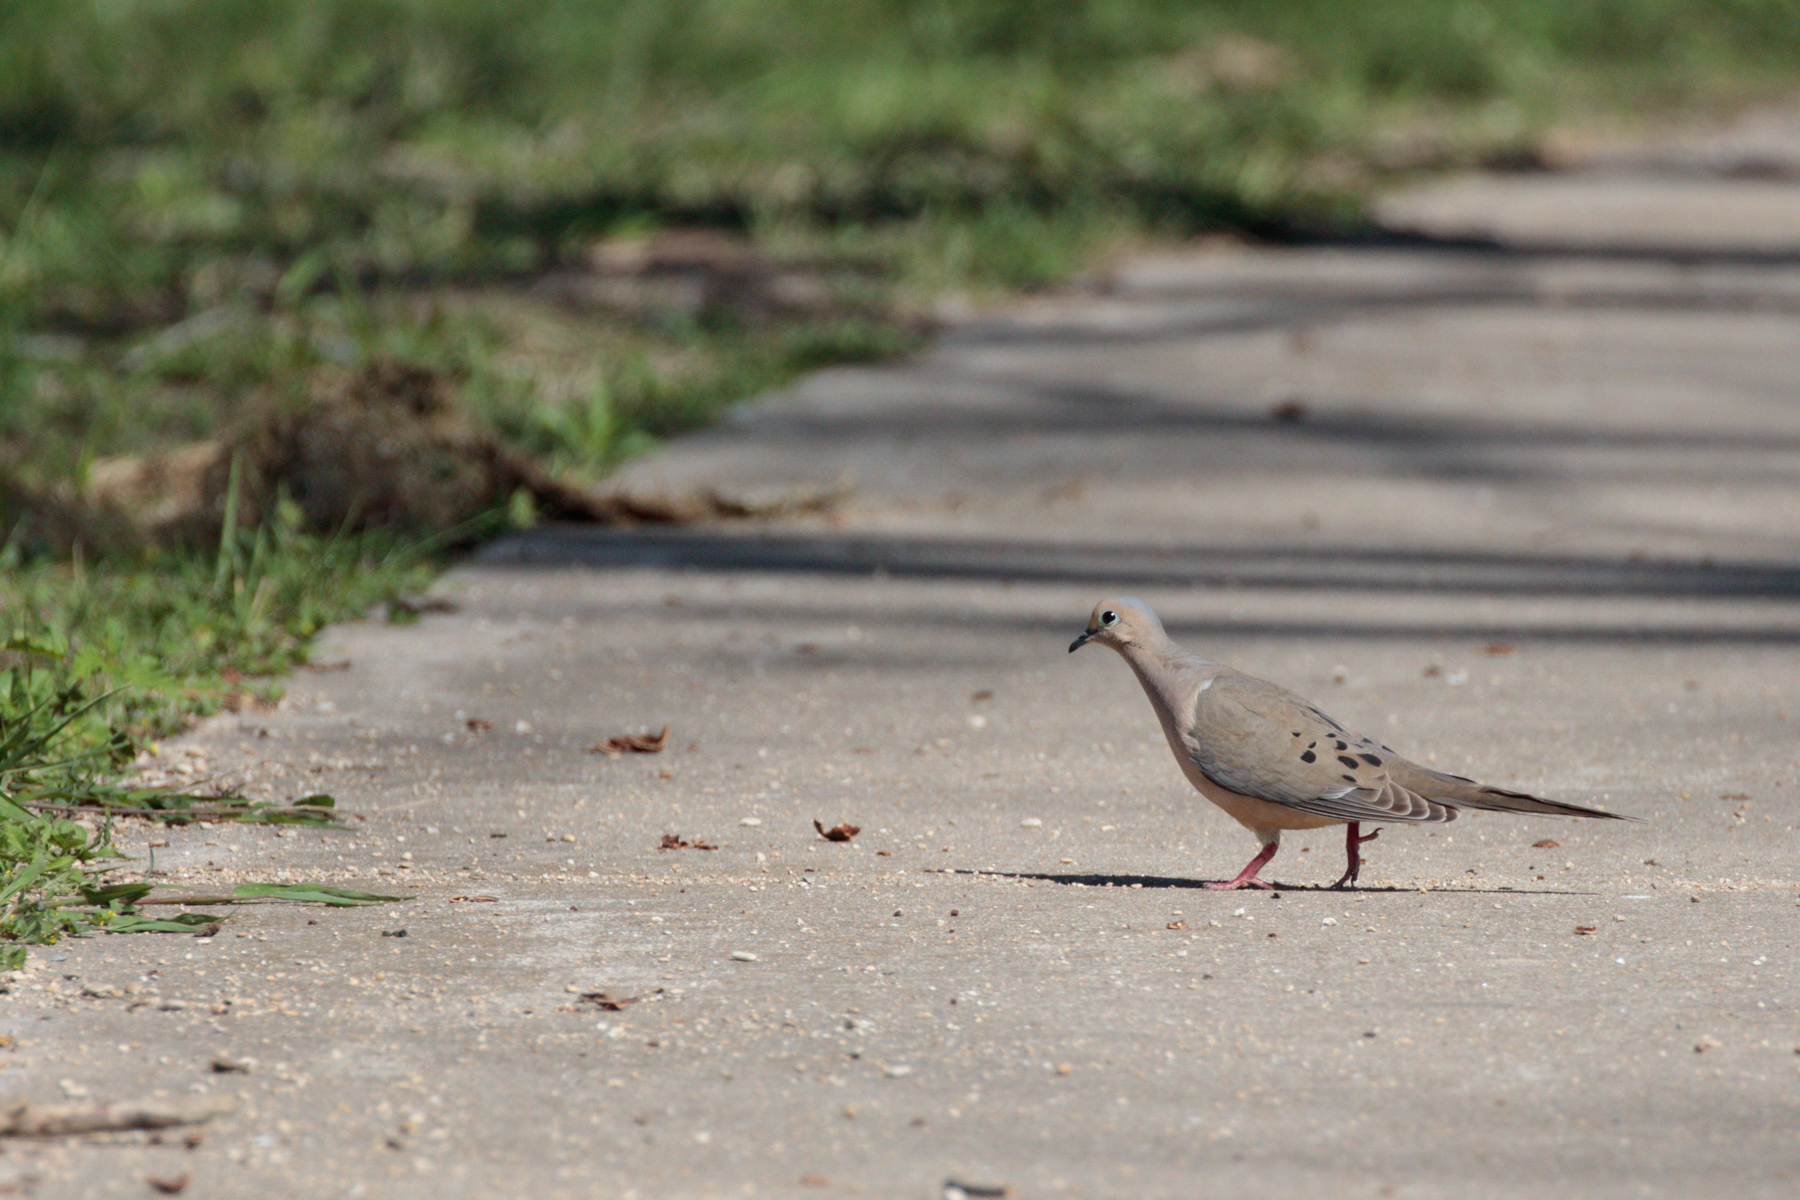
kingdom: Animalia
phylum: Chordata
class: Aves
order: Columbiformes
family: Columbidae
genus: Zenaida
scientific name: Zenaida macroura
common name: Mourning dove
